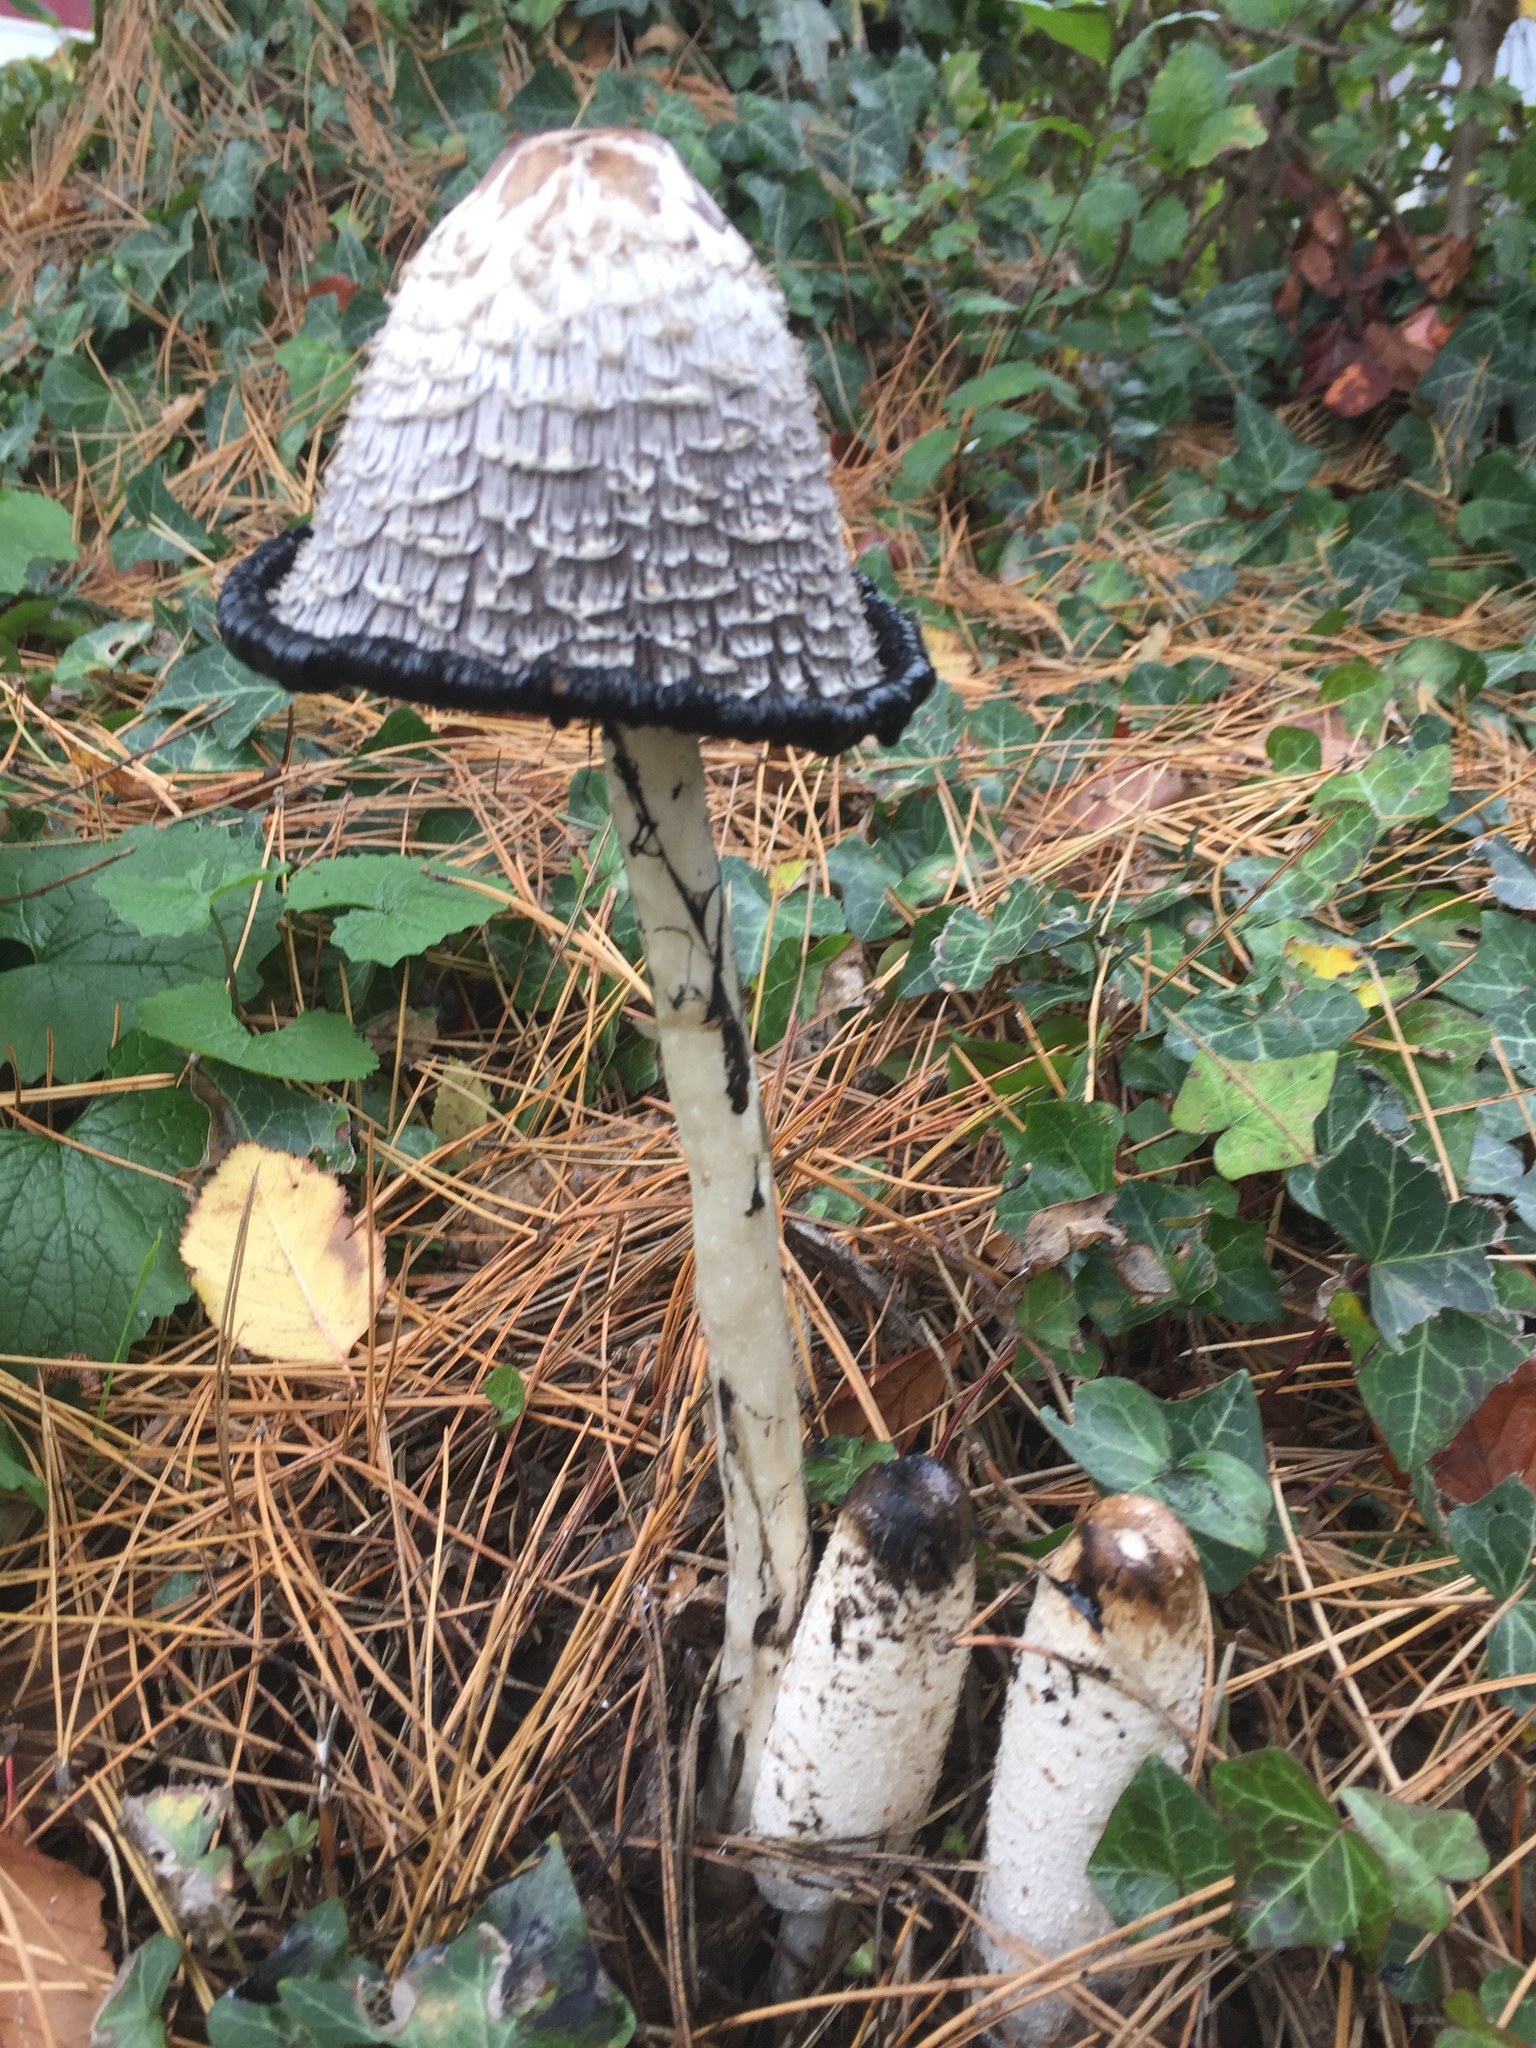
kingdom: Fungi
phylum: Basidiomycota
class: Agaricomycetes
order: Agaricales
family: Agaricaceae
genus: Coprinus
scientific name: Coprinus comatus
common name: Lawyer's wig
